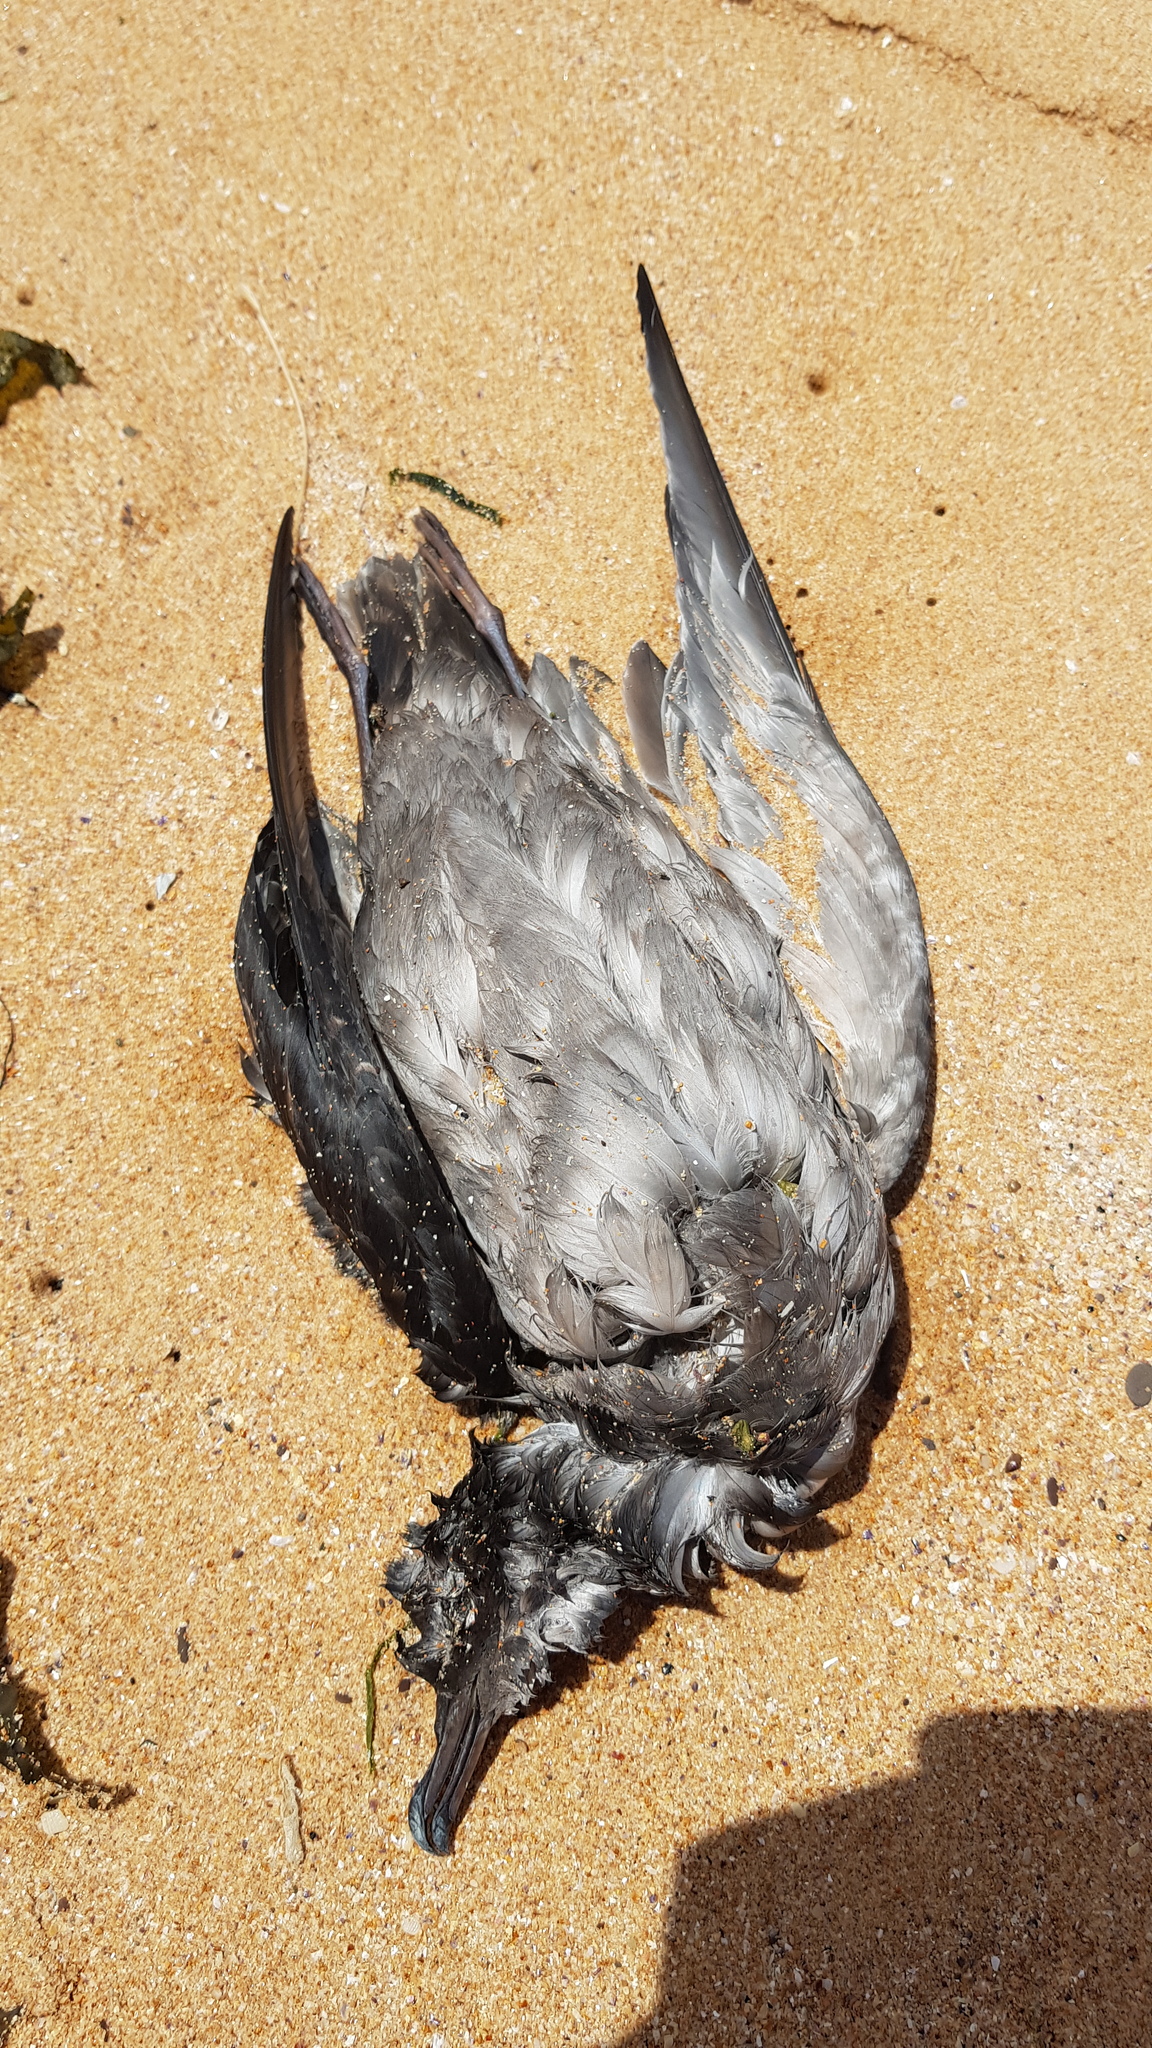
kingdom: Animalia
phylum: Chordata
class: Aves
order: Procellariiformes
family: Procellariidae
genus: Puffinus
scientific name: Puffinus tenuirostris
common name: Short-tailed shearwater
